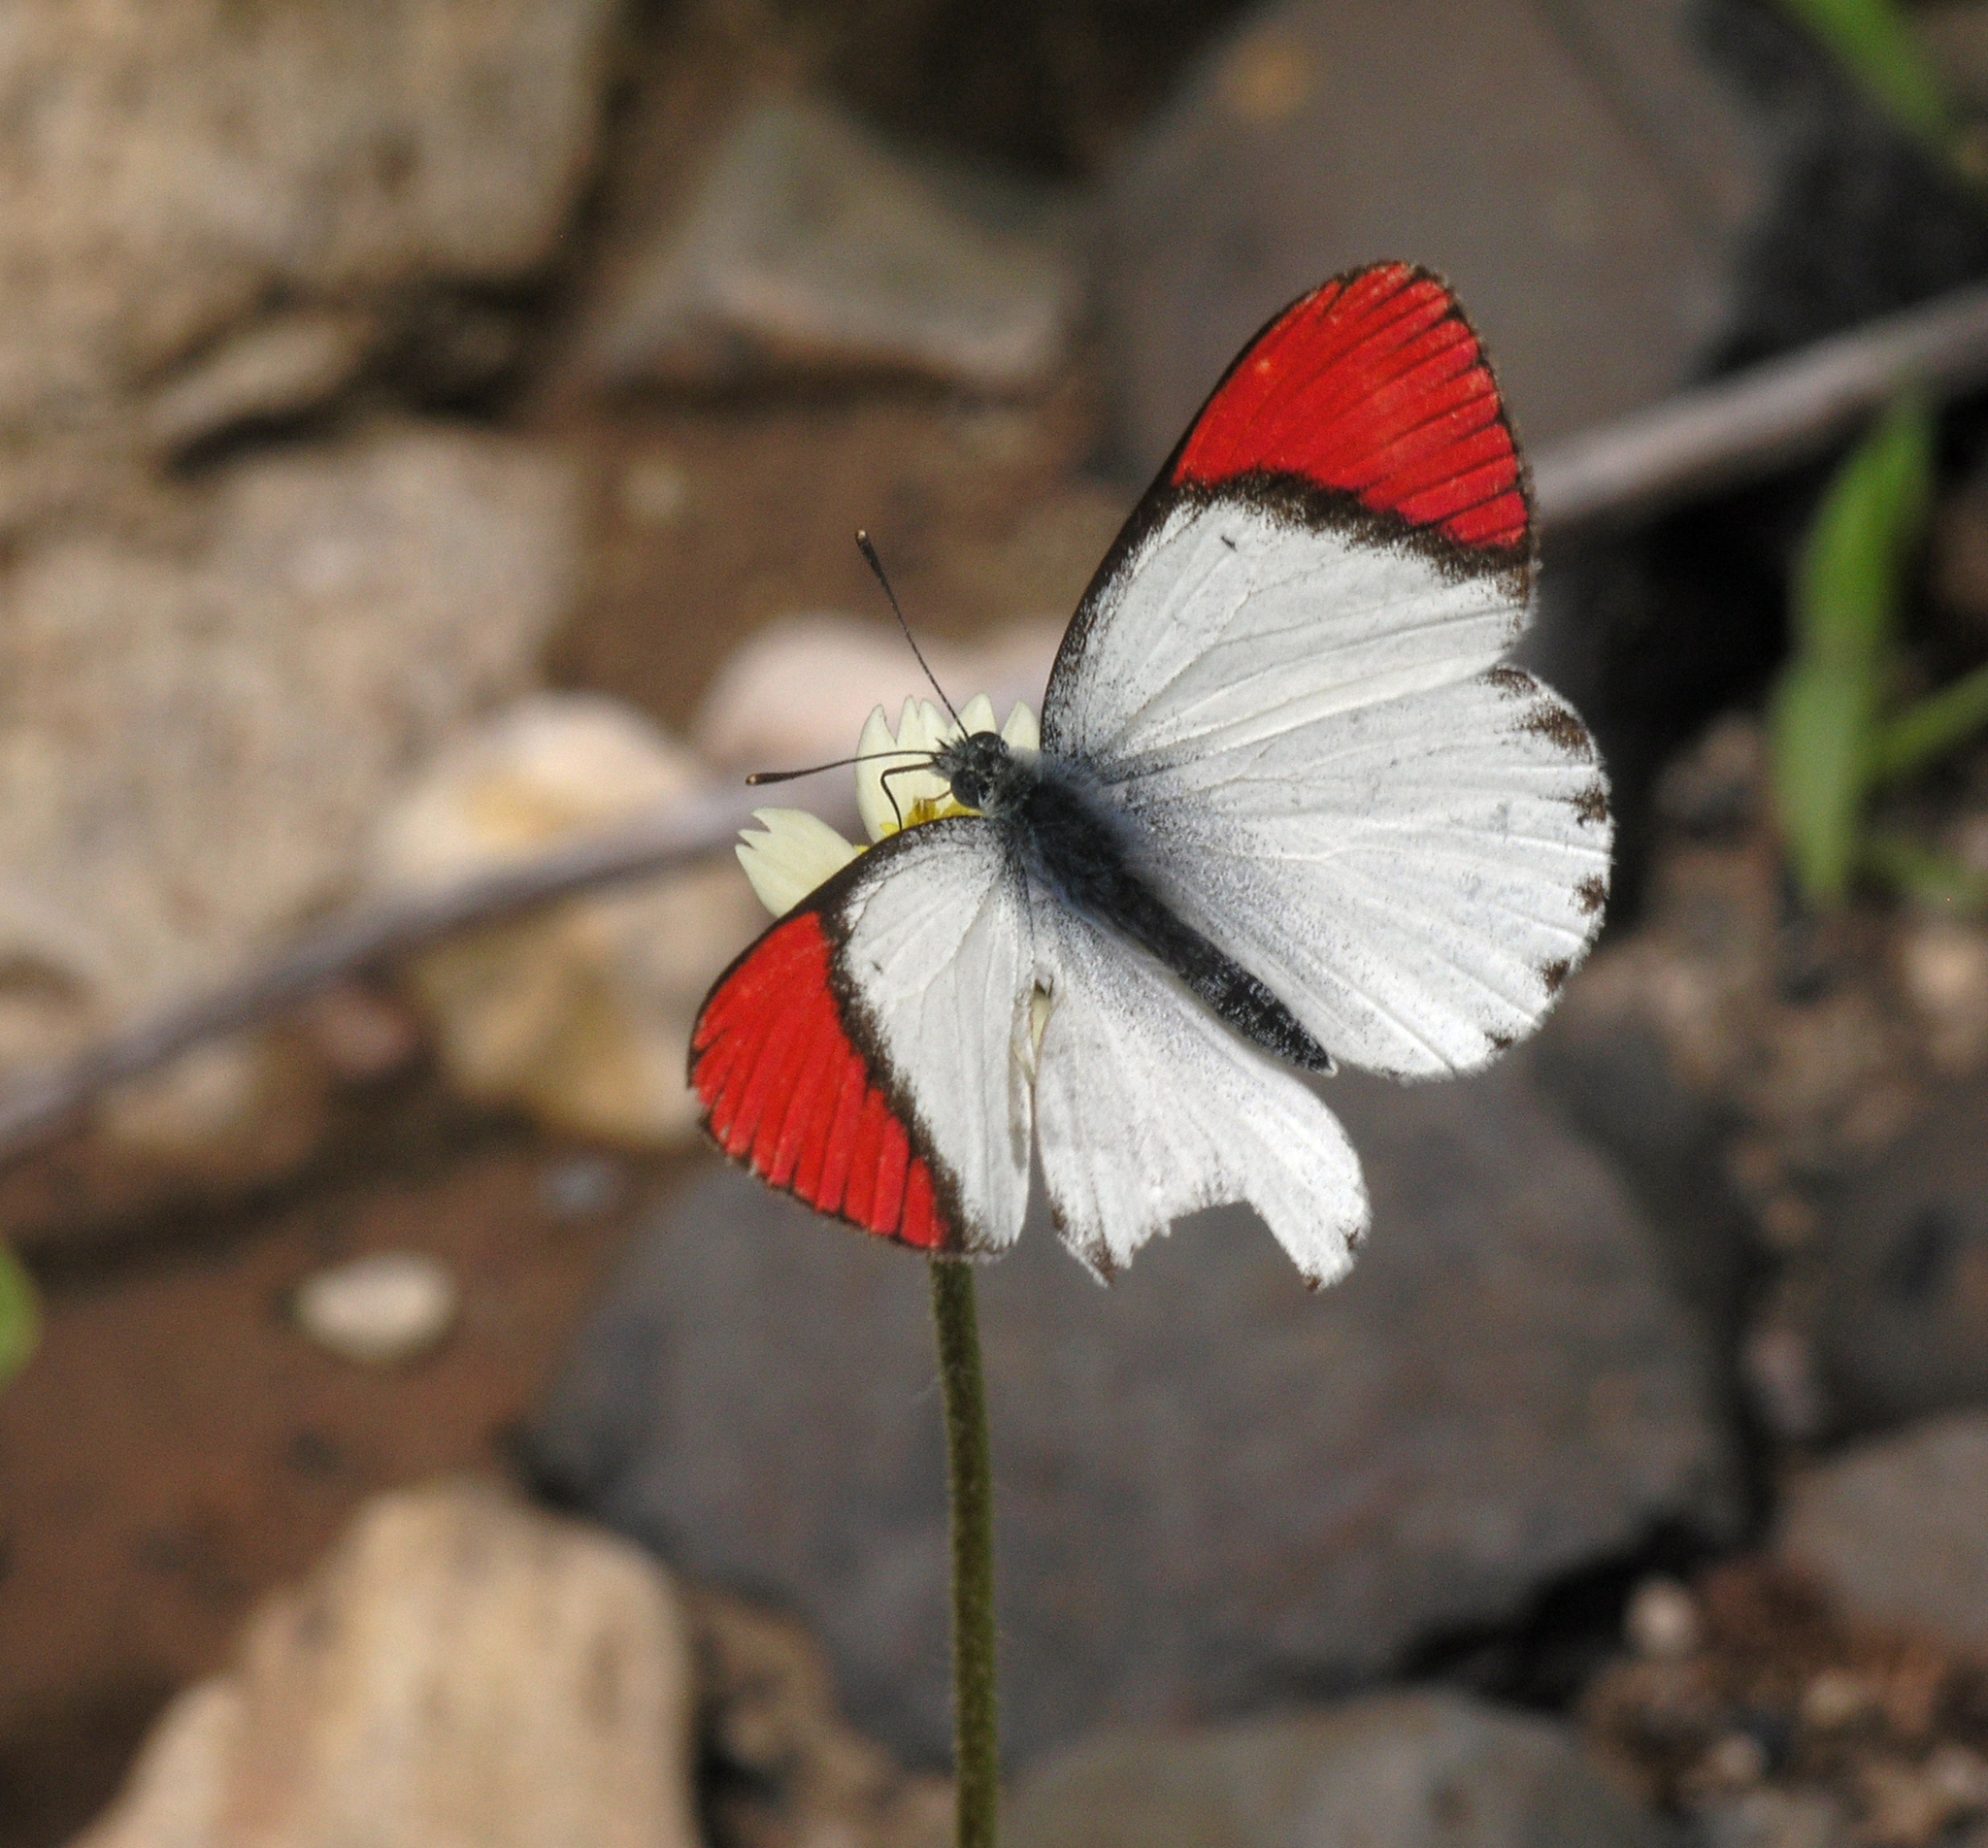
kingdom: Animalia
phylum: Arthropoda
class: Insecta
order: Lepidoptera
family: Pieridae
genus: Colotis
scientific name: Colotis danae
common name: Crimson tip
